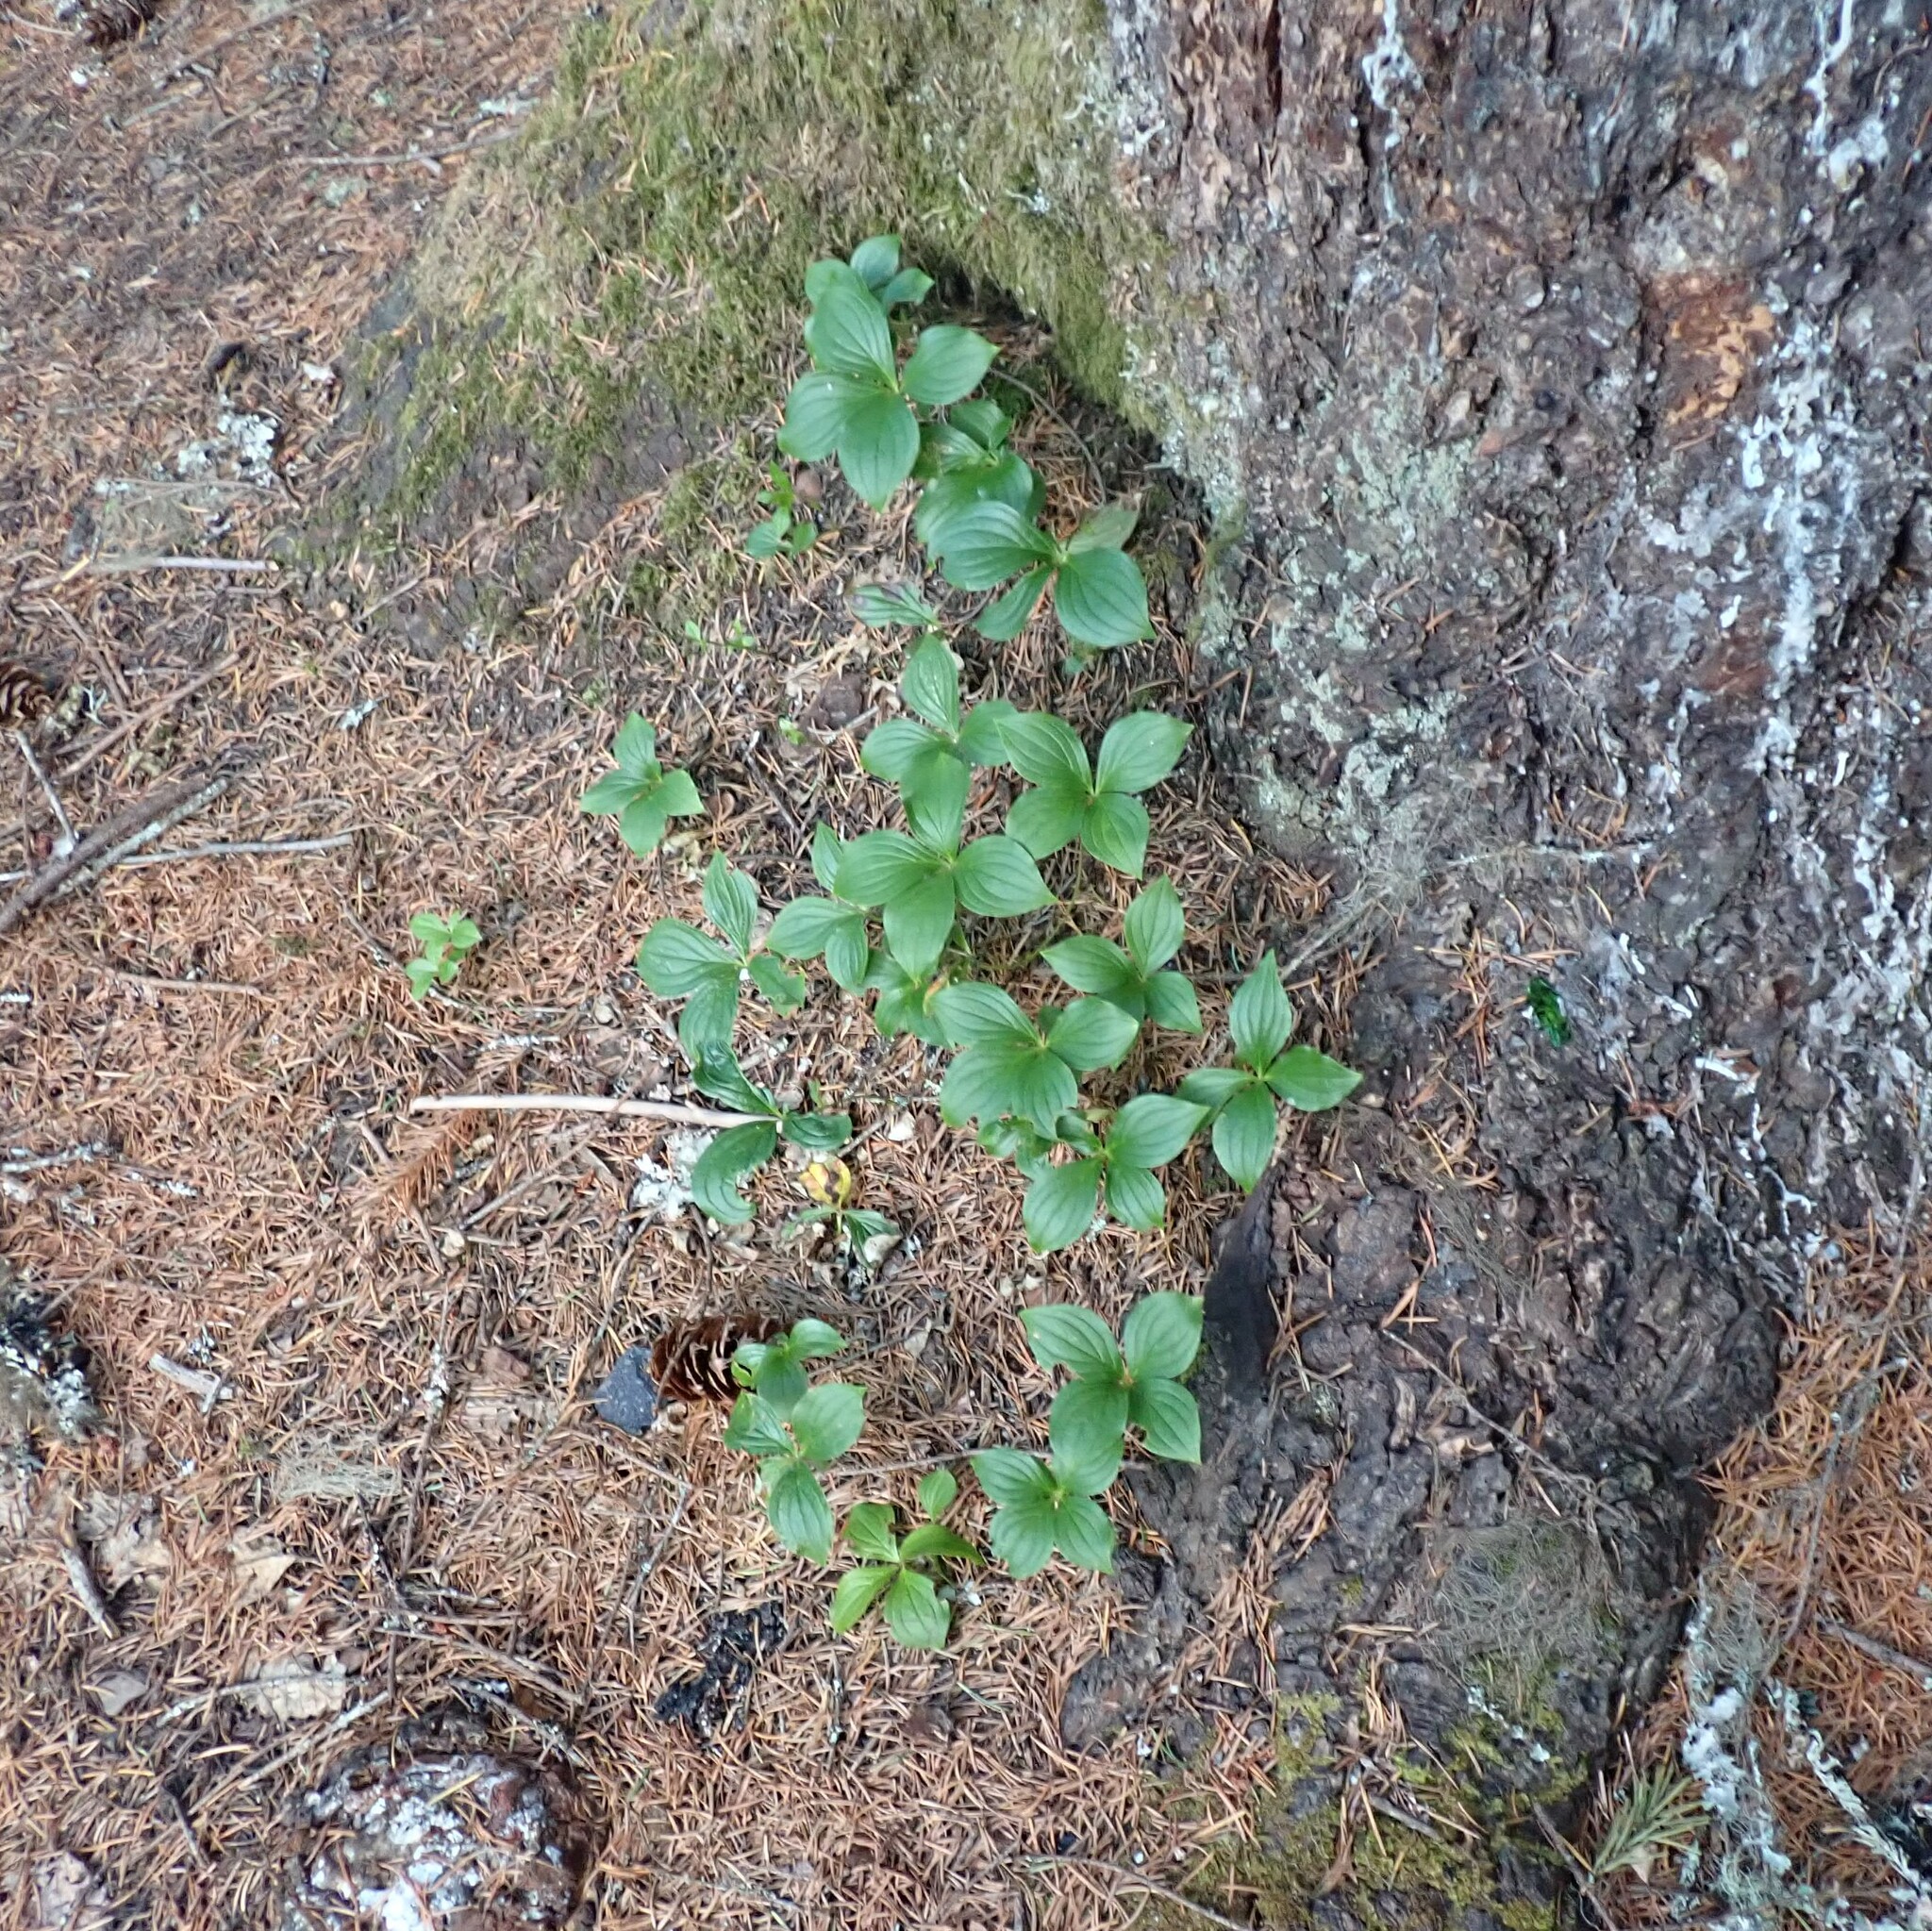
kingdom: Plantae
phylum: Tracheophyta
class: Magnoliopsida
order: Cornales
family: Cornaceae
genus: Cornus
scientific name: Cornus unalaschkensis
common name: Alaska bunchberry
